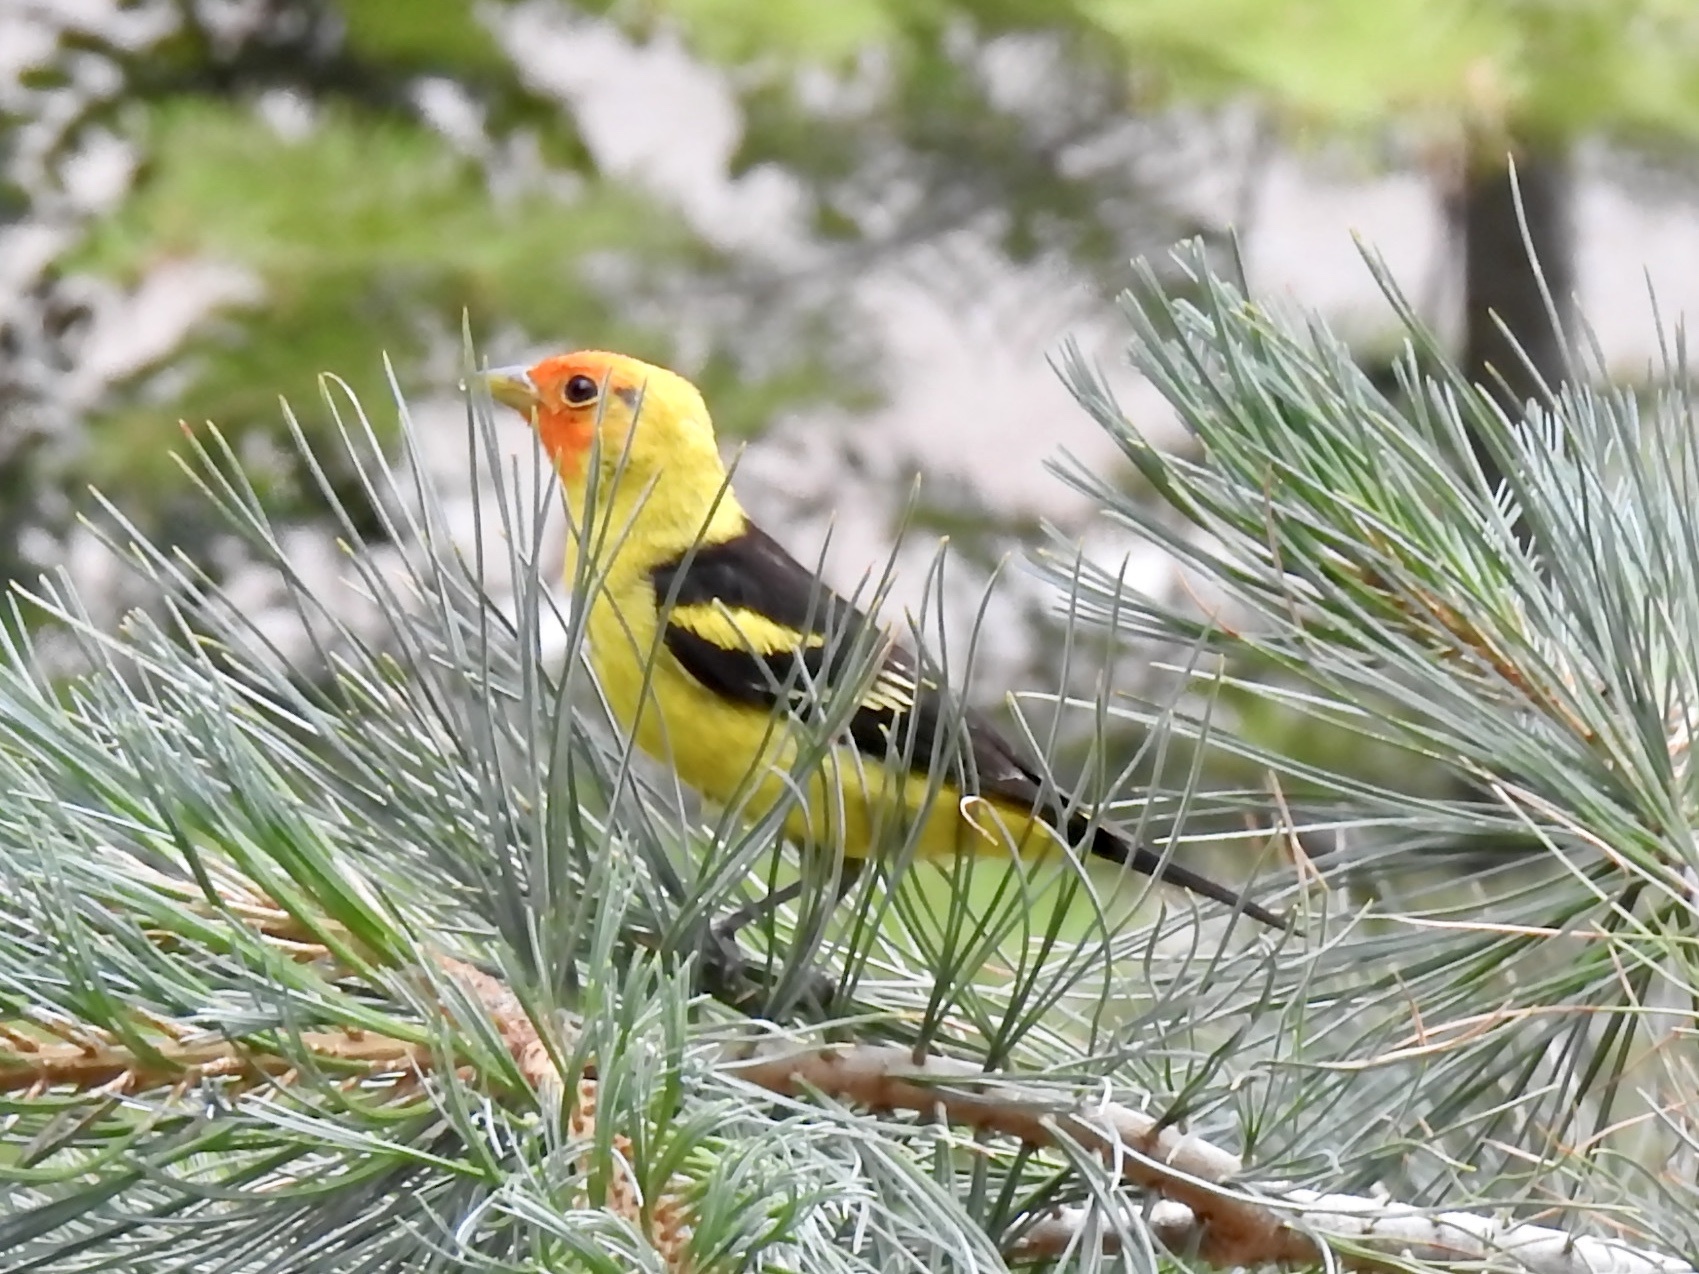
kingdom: Animalia
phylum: Chordata
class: Aves
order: Passeriformes
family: Cardinalidae
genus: Piranga
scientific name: Piranga ludoviciana
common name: Western tanager
